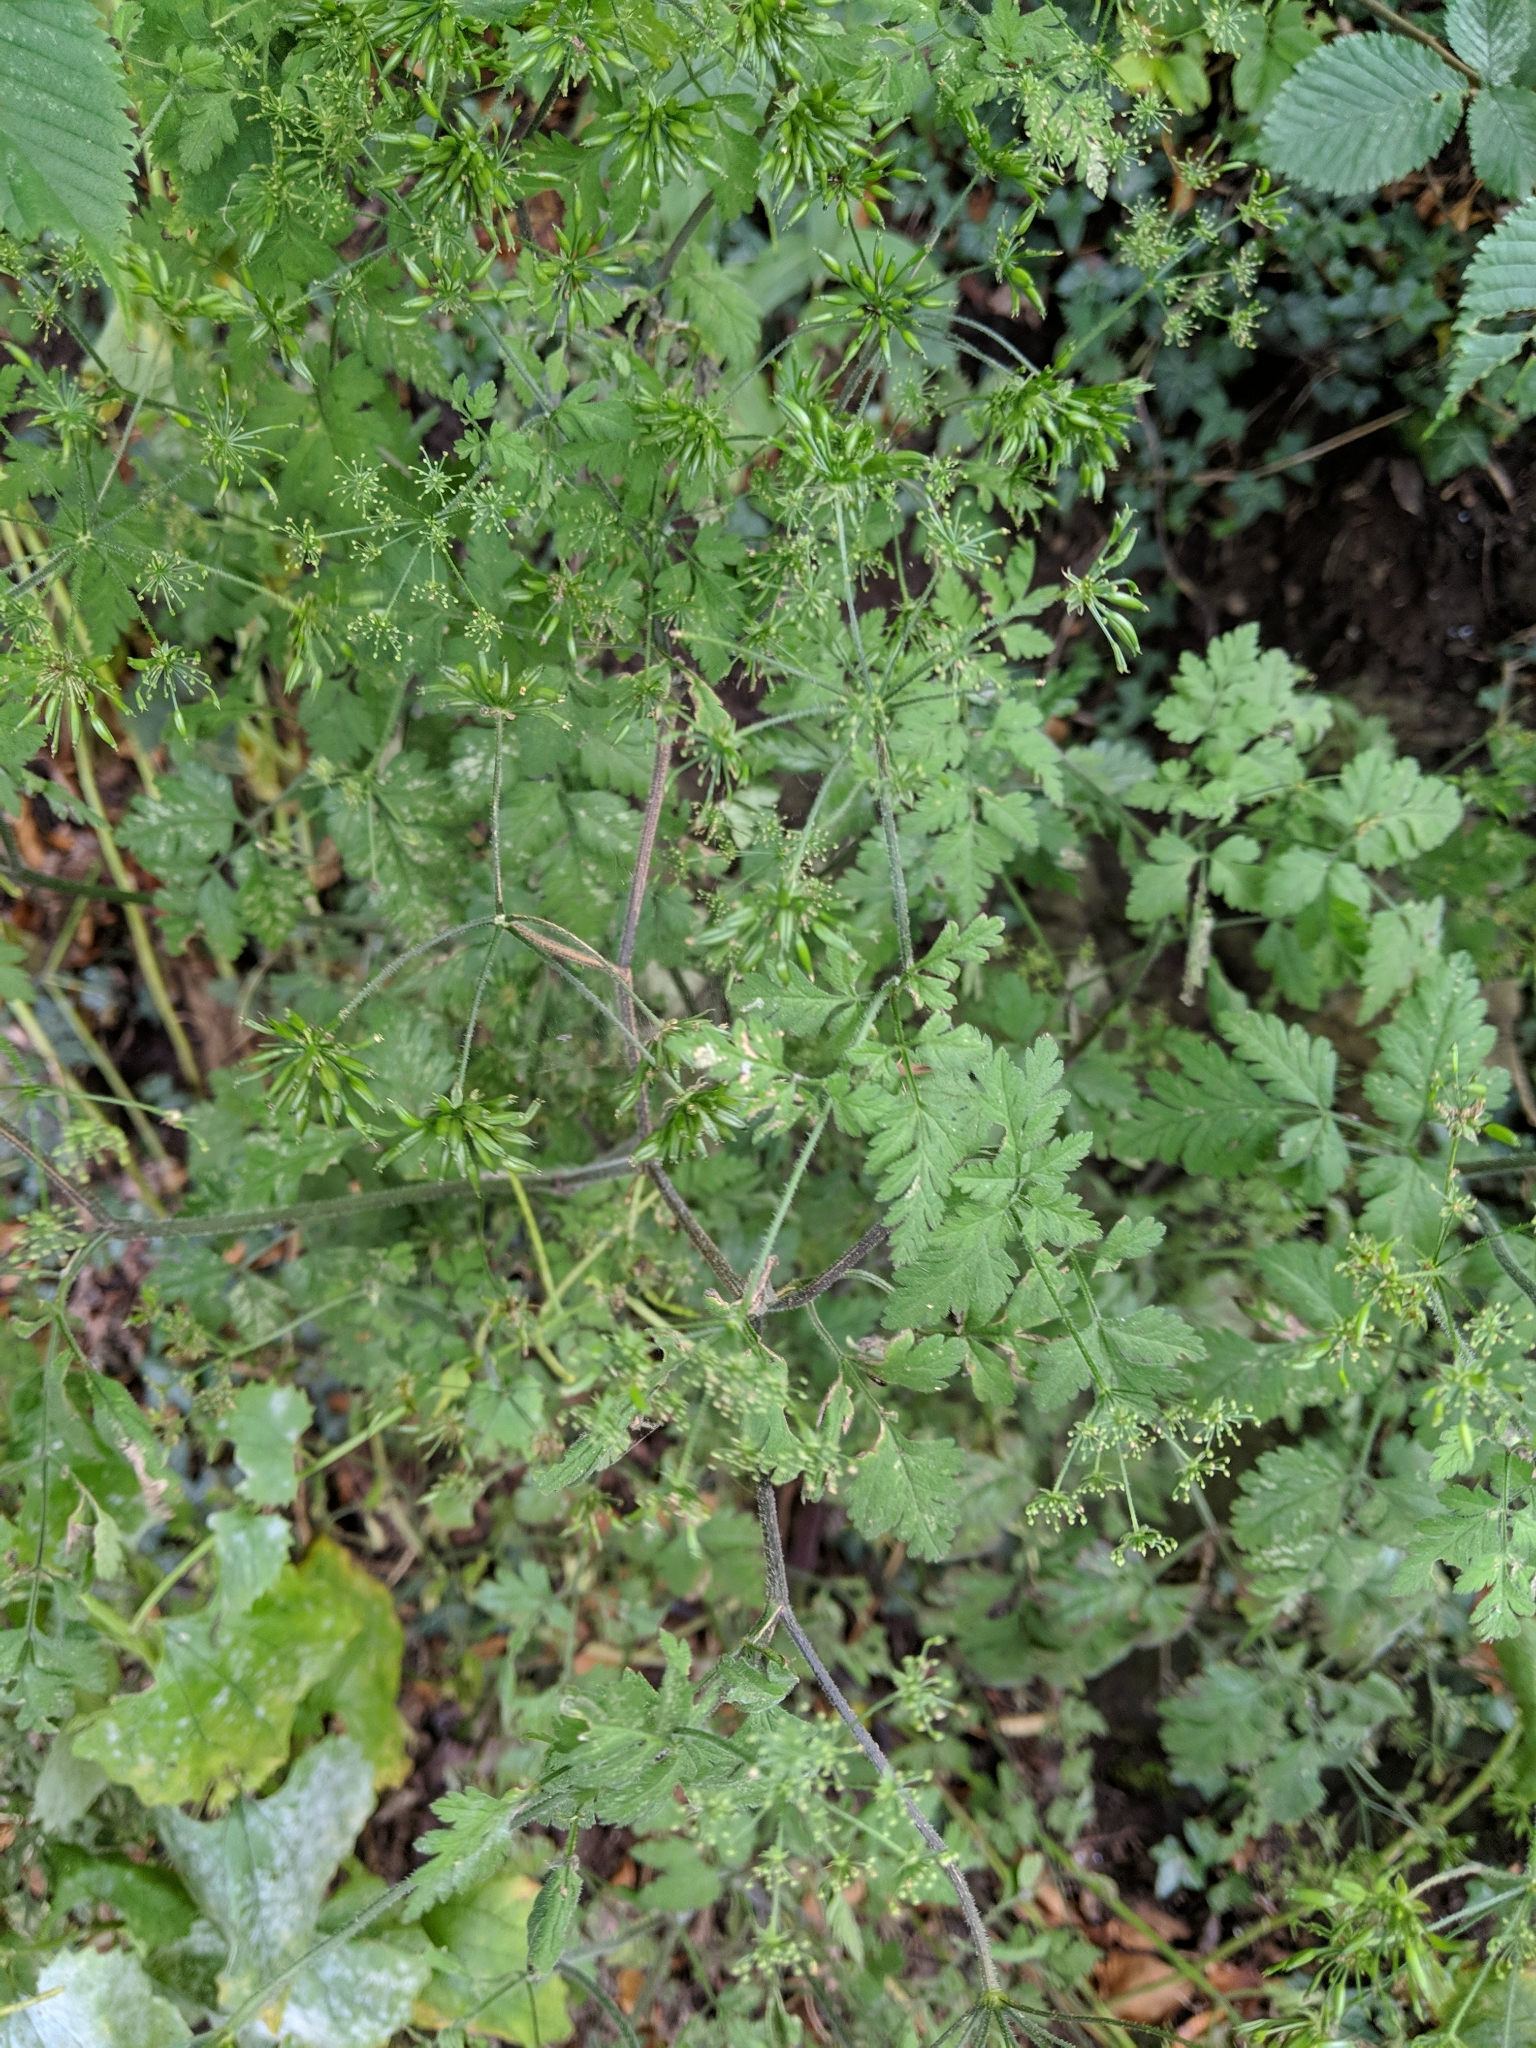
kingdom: Plantae
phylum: Tracheophyta
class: Magnoliopsida
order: Apiales
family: Apiaceae
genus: Chaerophyllum
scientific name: Chaerophyllum temulum
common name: Rough chervil
